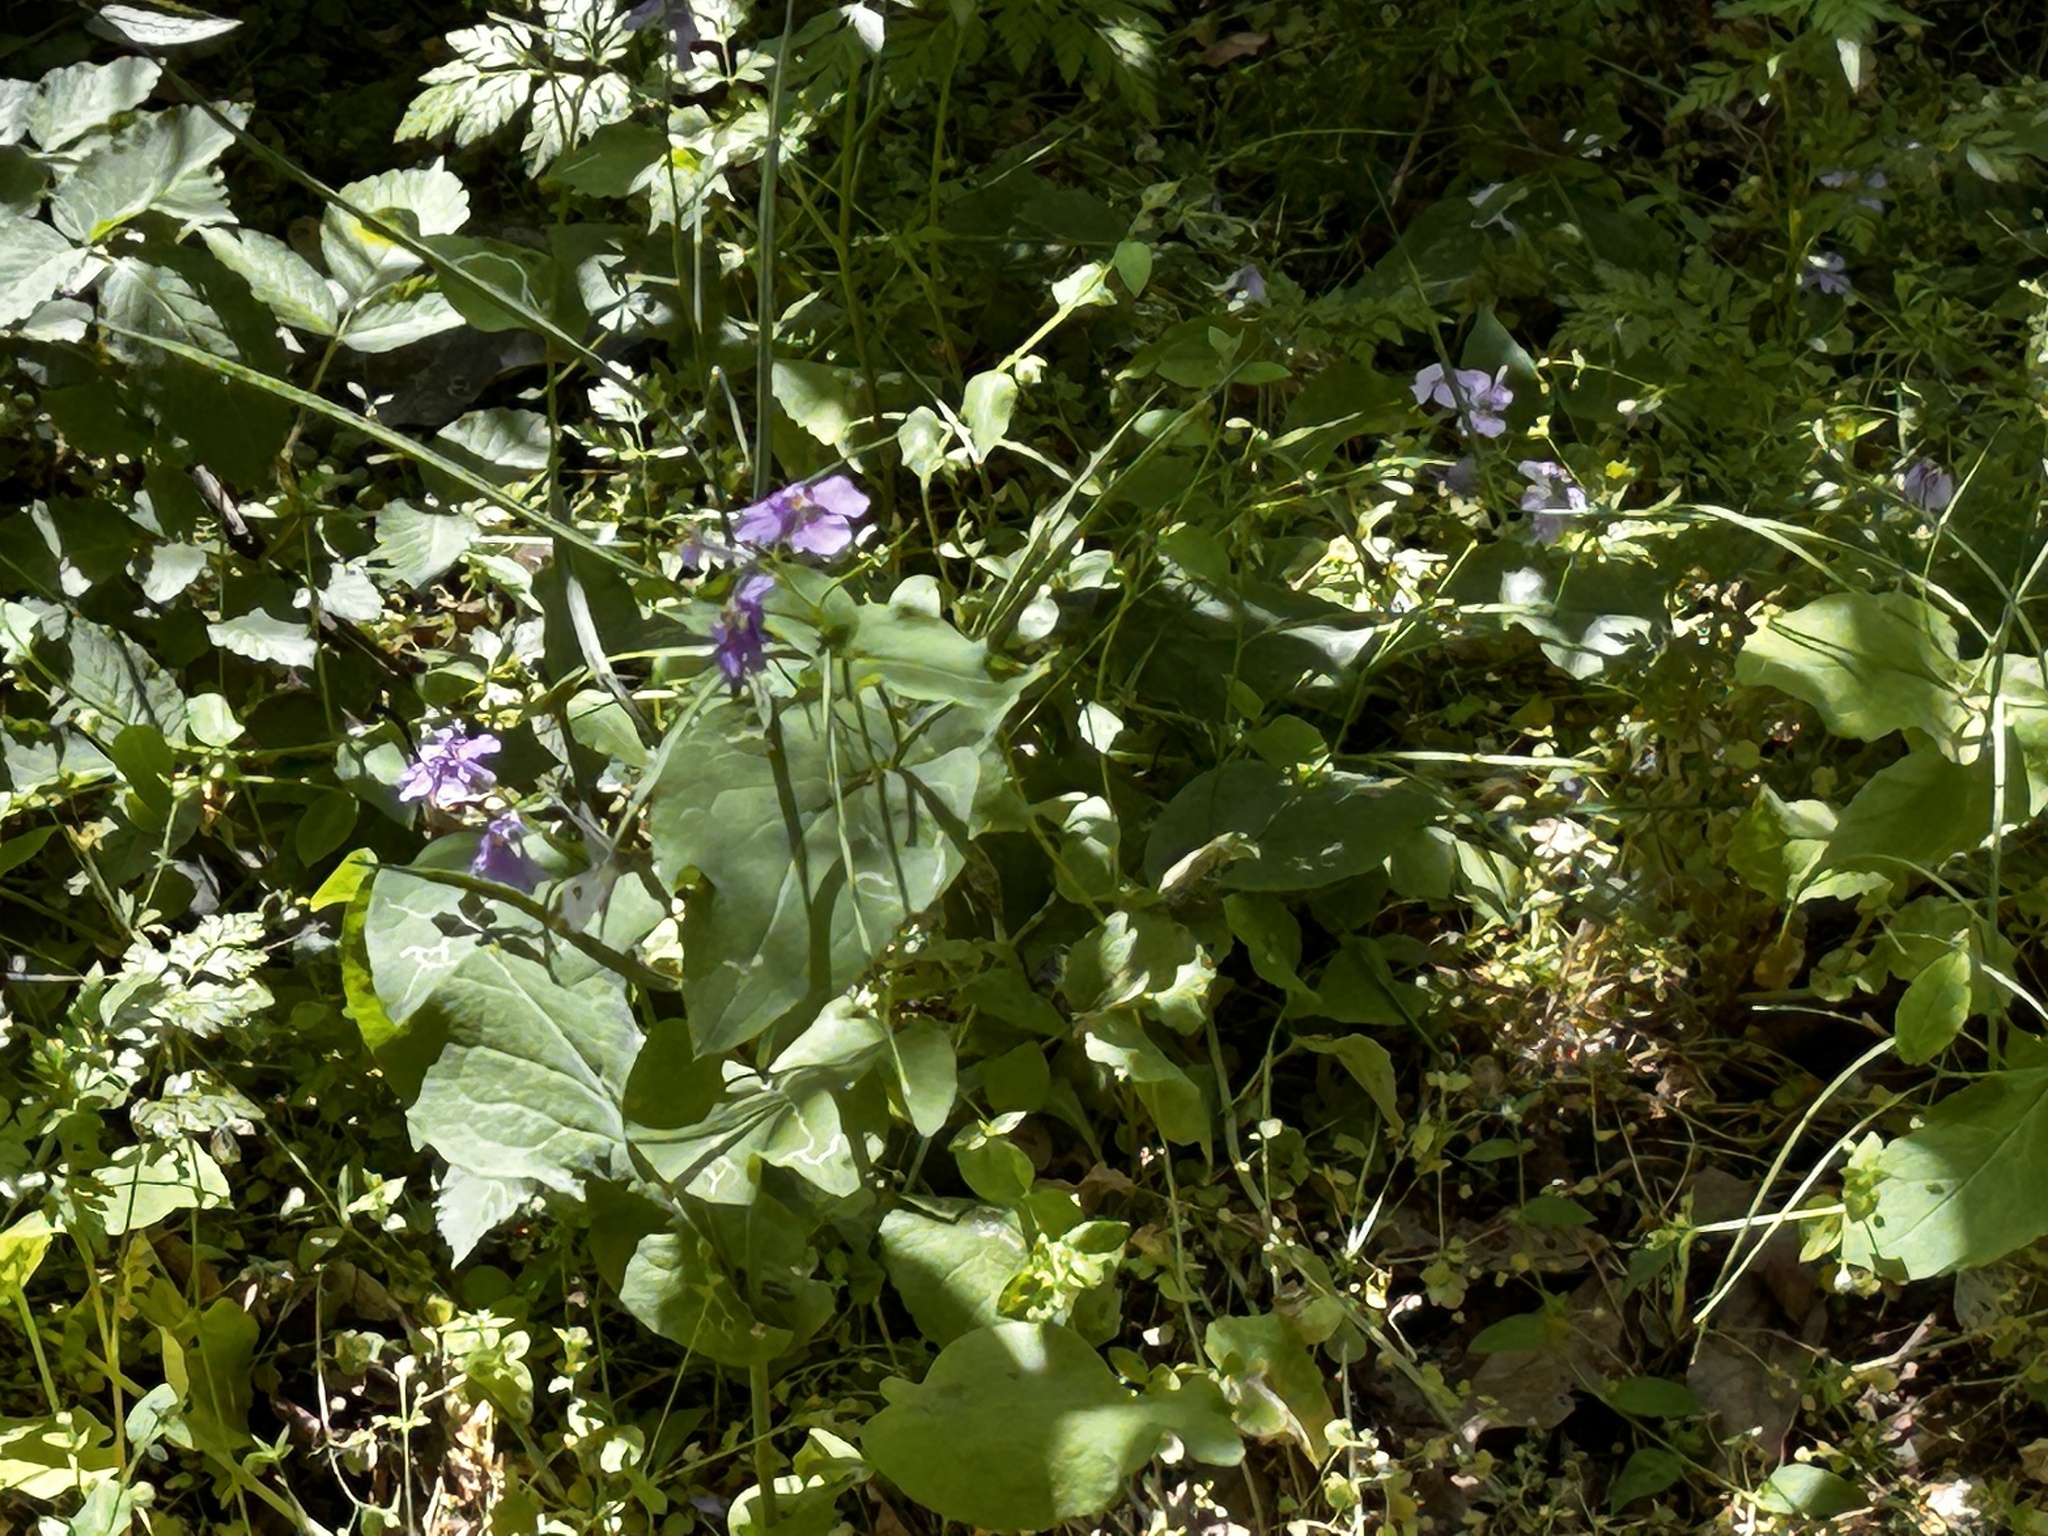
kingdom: Plantae
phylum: Tracheophyta
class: Magnoliopsida
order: Brassicales
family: Brassicaceae
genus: Orychophragmus
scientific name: Orychophragmus violaceus
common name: Mustard
